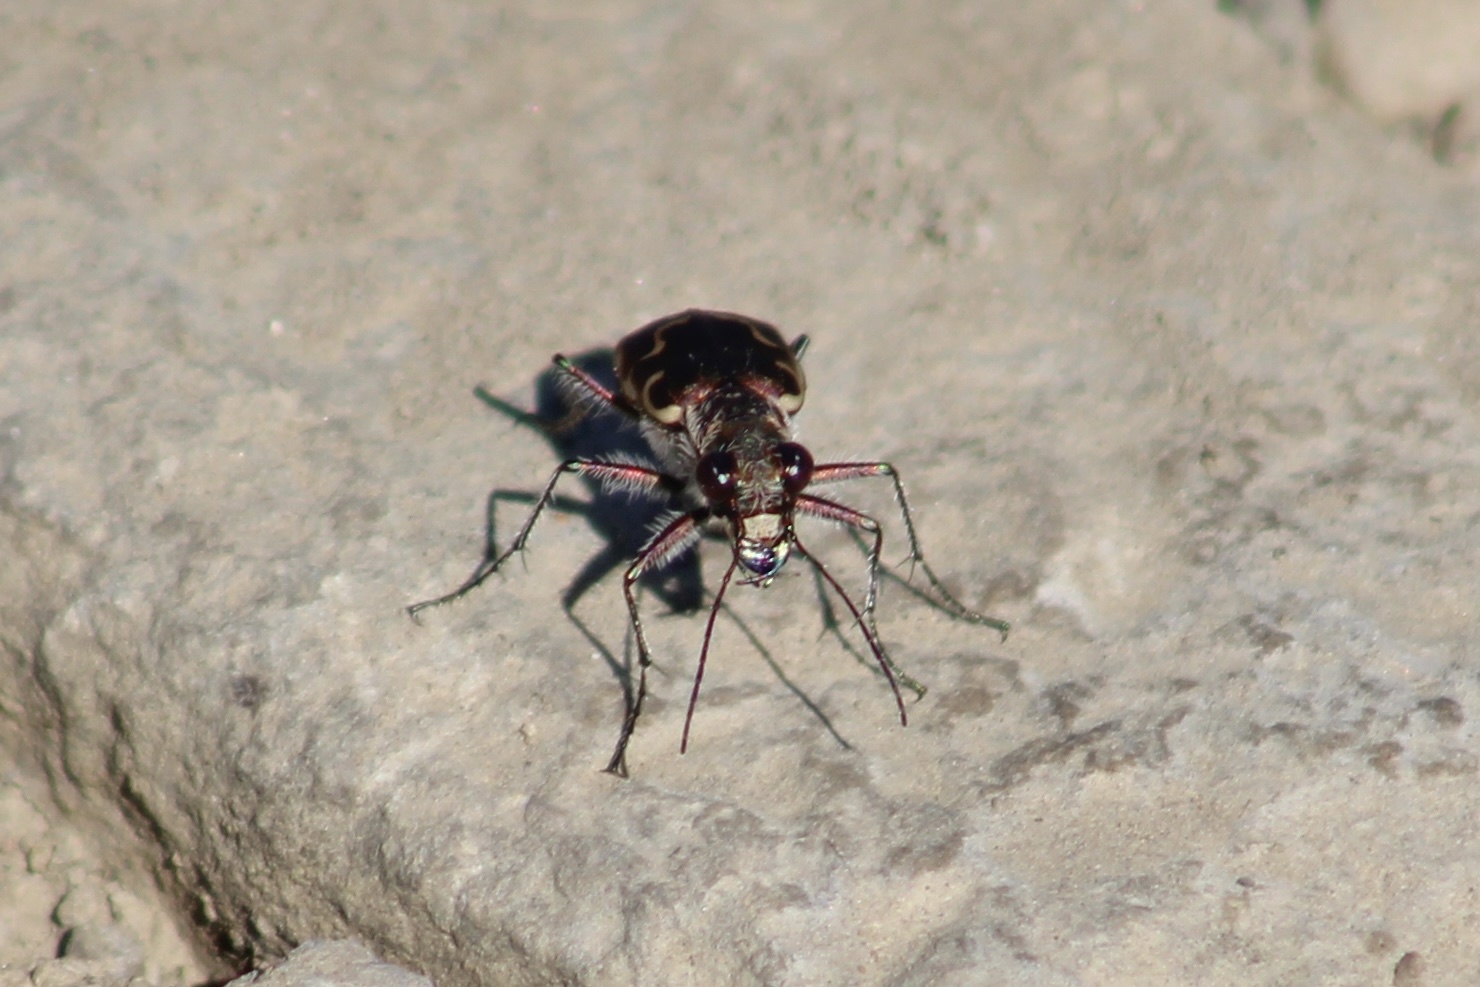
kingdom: Animalia
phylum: Arthropoda
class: Insecta
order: Coleoptera
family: Carabidae
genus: Cicindela
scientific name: Cicindela repanda
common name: Bronzed tiger beetle
